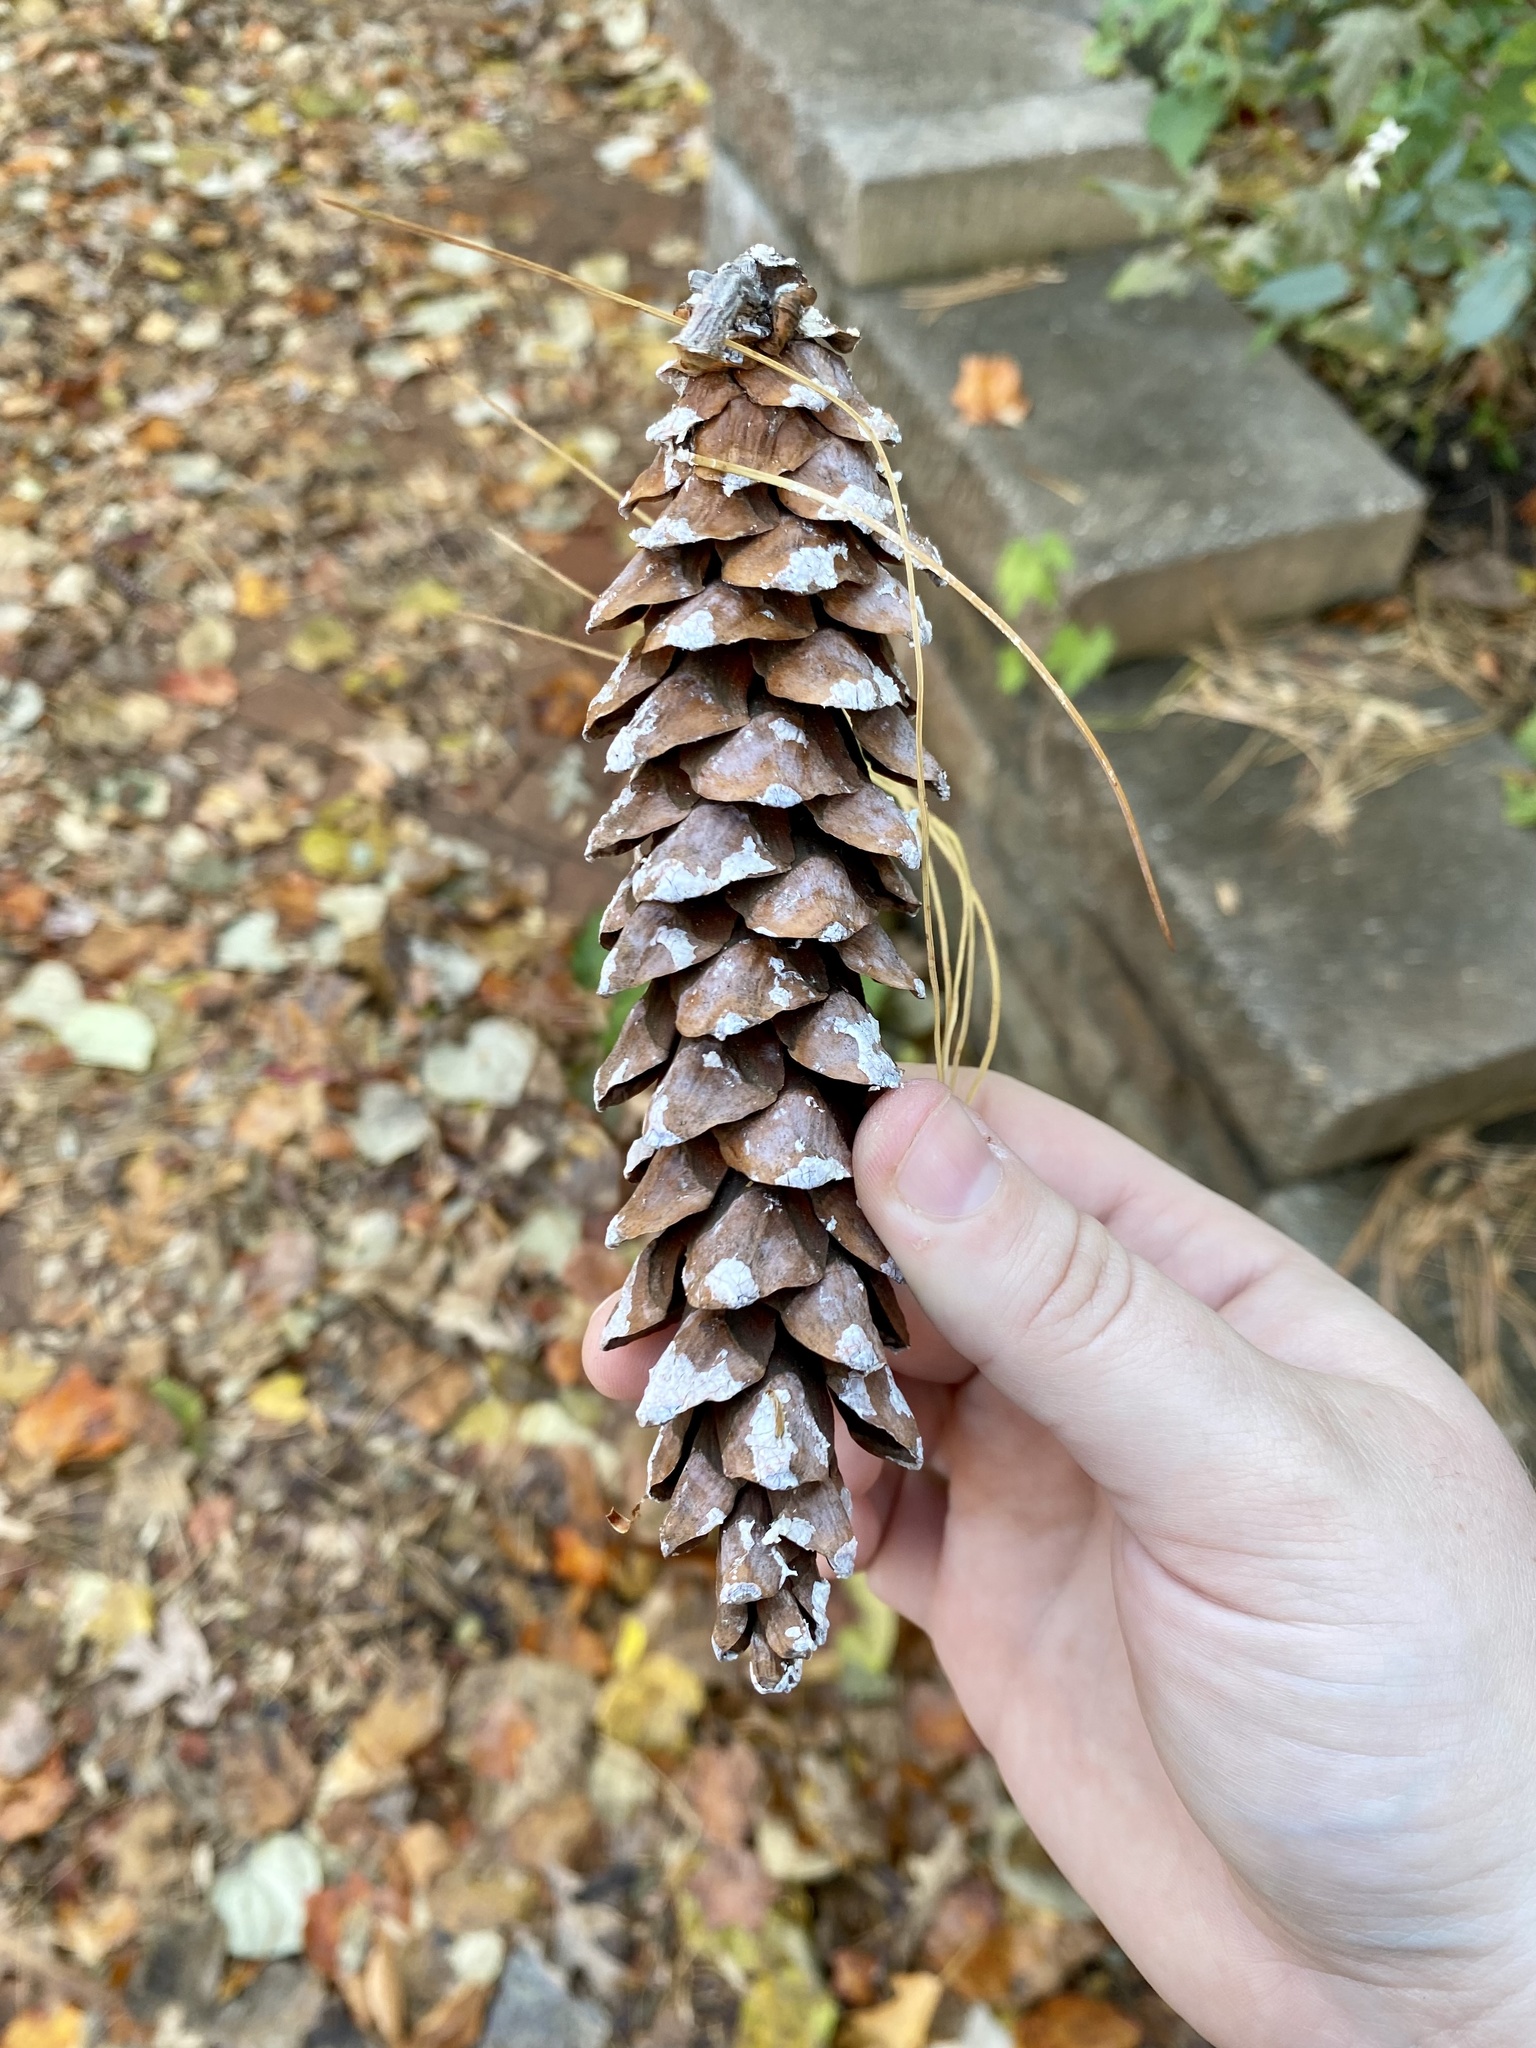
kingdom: Plantae
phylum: Tracheophyta
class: Pinopsida
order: Pinales
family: Pinaceae
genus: Pinus
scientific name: Pinus strobus
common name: Weymouth pine
